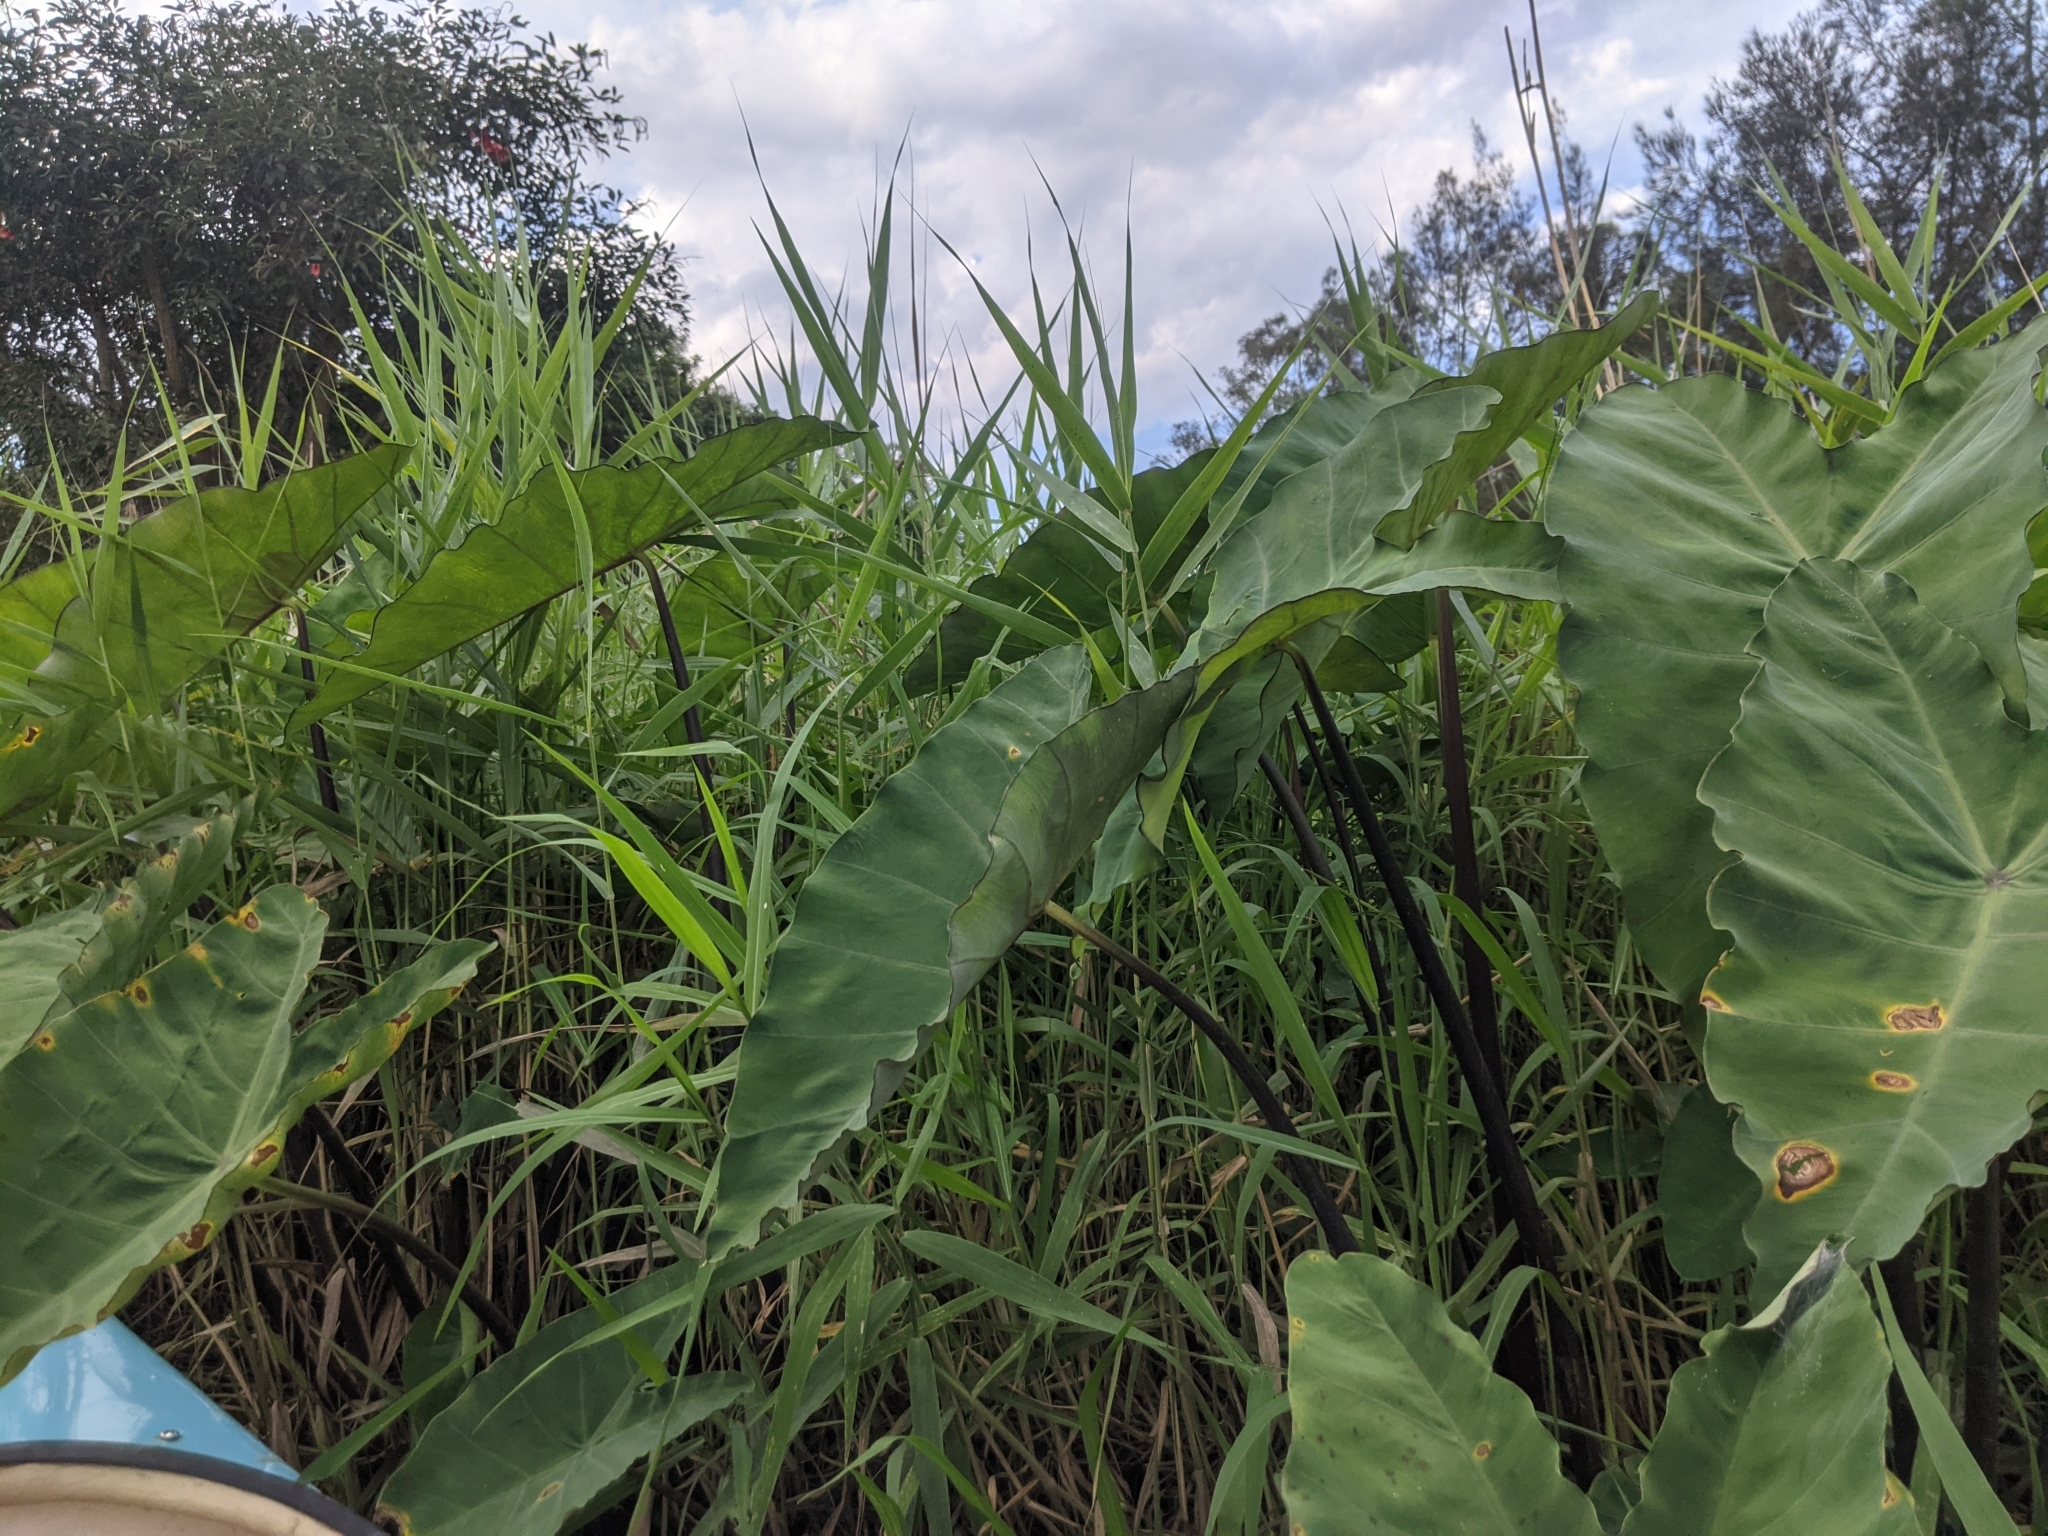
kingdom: Plantae
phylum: Tracheophyta
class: Liliopsida
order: Alismatales
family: Araceae
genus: Colocasia
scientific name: Colocasia esculenta
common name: Taro
